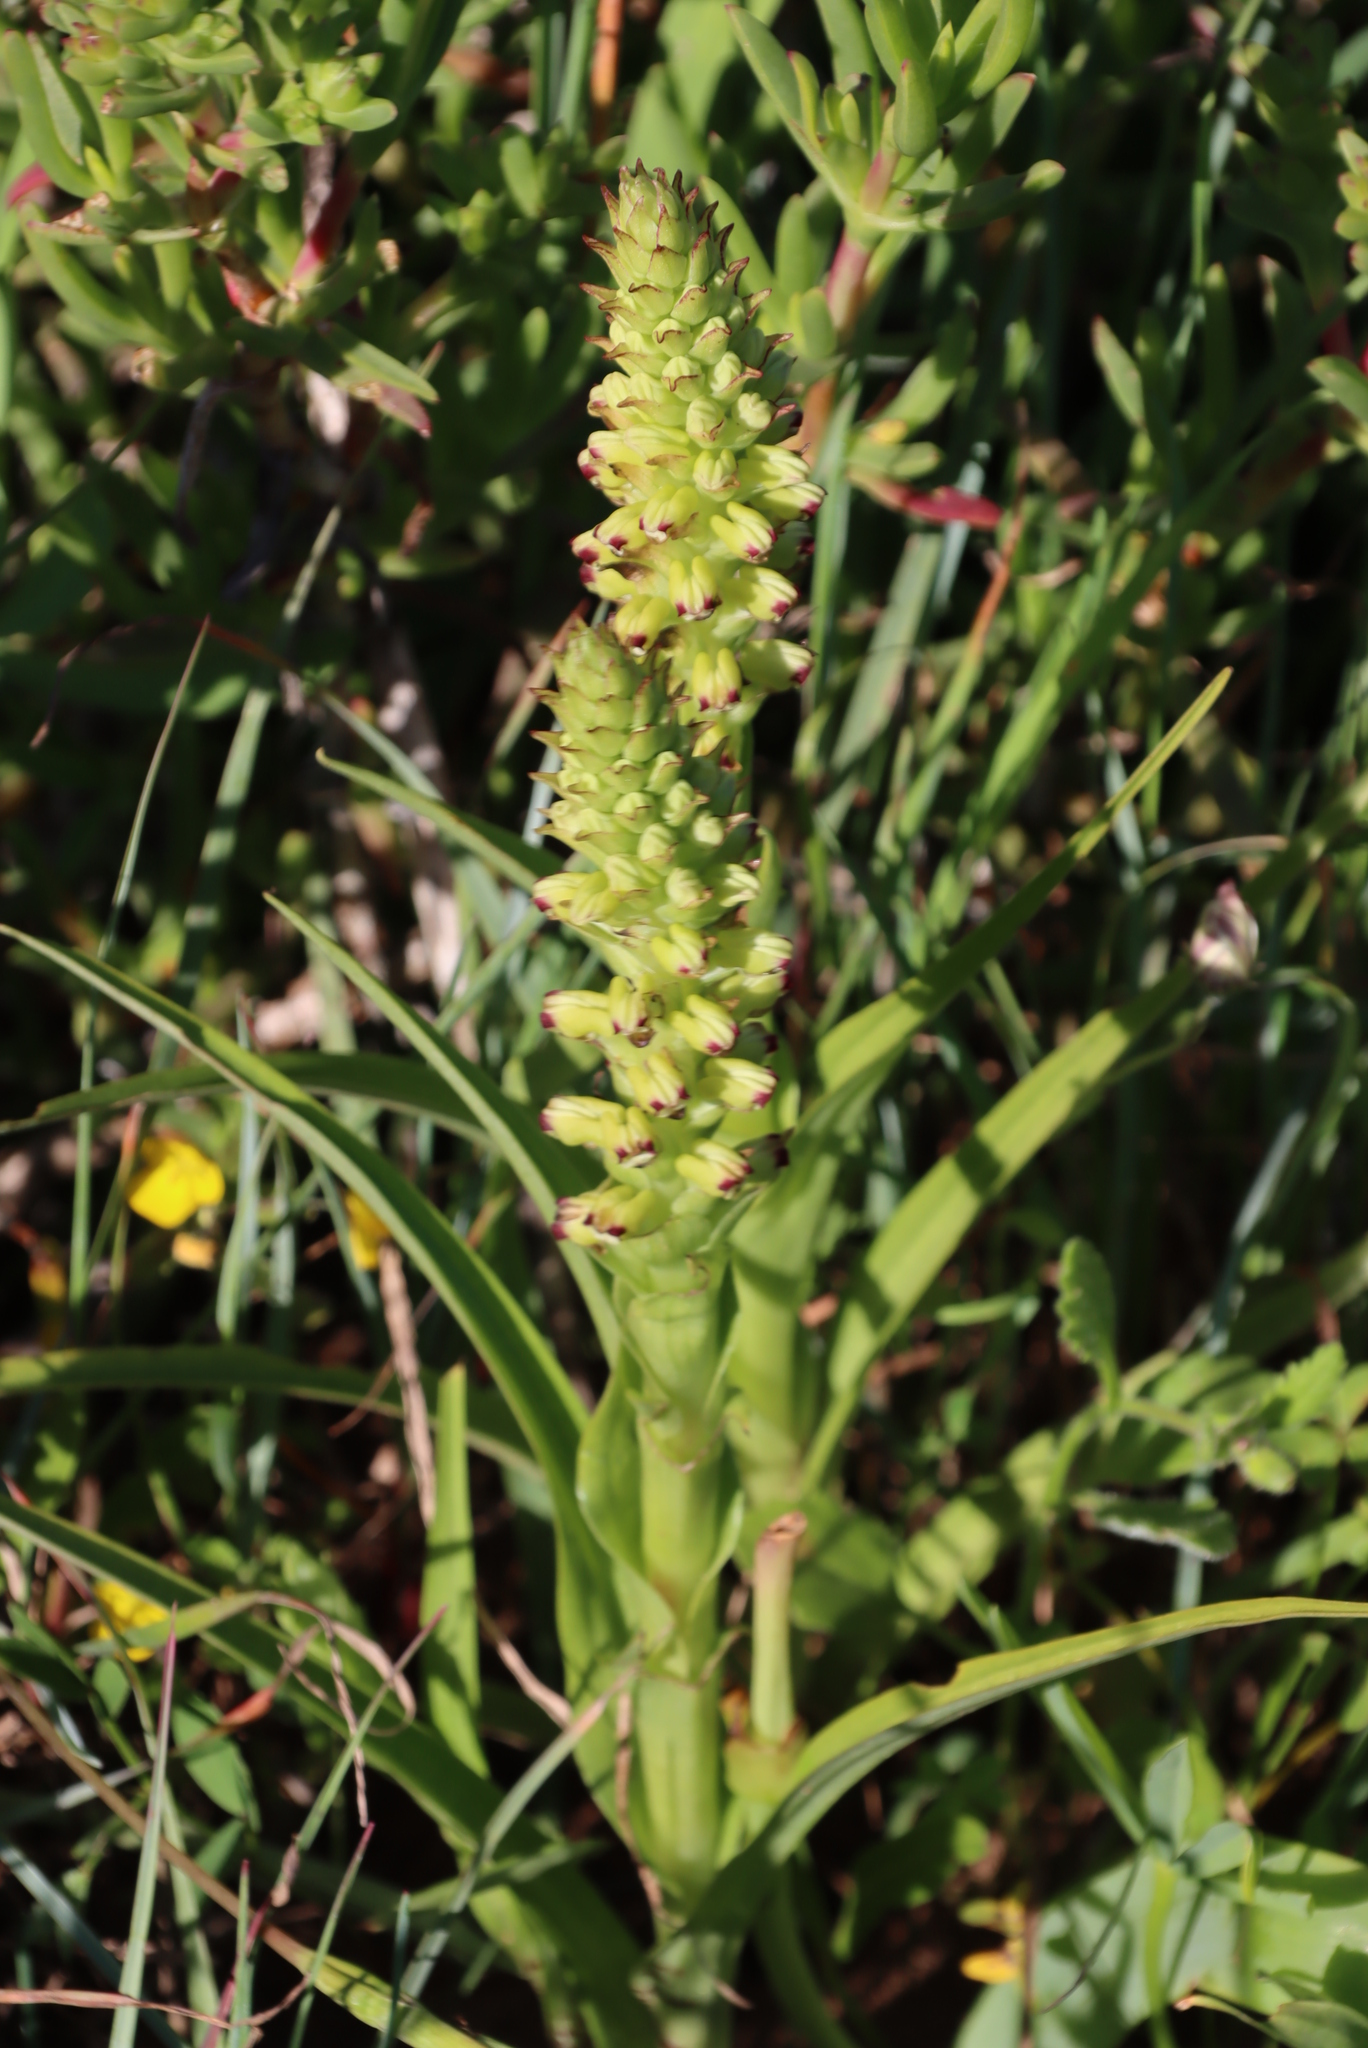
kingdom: Plantae
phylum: Tracheophyta
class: Liliopsida
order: Asparagales
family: Orchidaceae
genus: Corycium
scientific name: Corycium orobanchoides
